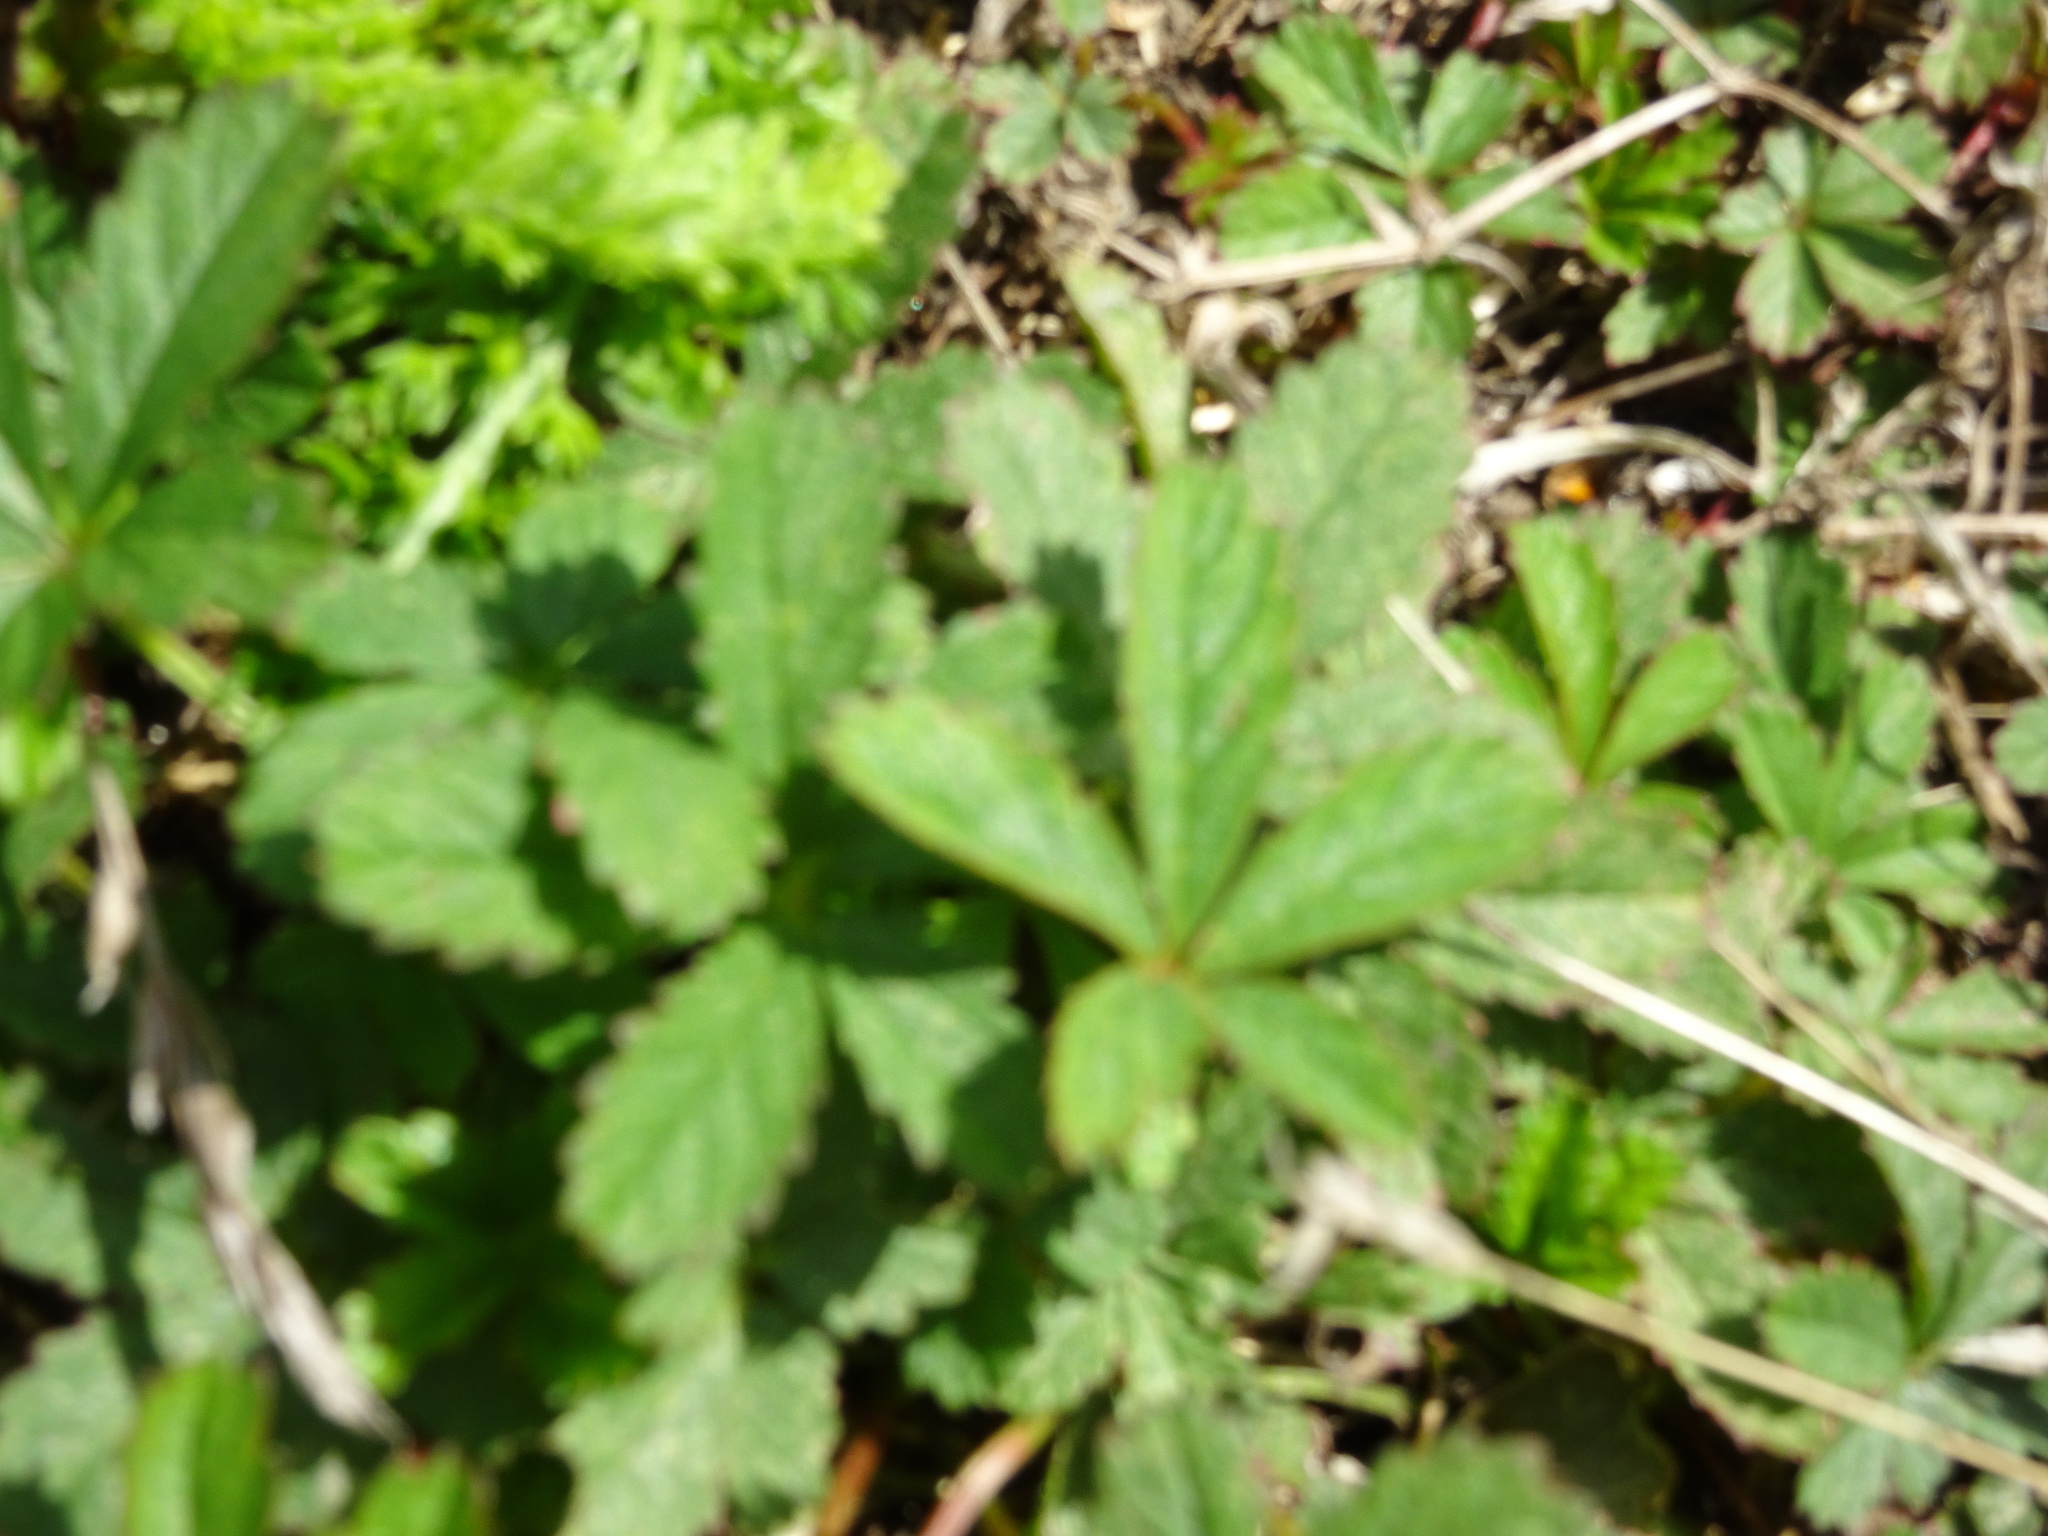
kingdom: Plantae
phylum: Tracheophyta
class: Magnoliopsida
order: Rosales
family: Rosaceae
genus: Potentilla
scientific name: Potentilla reptans
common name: Creeping cinquefoil
